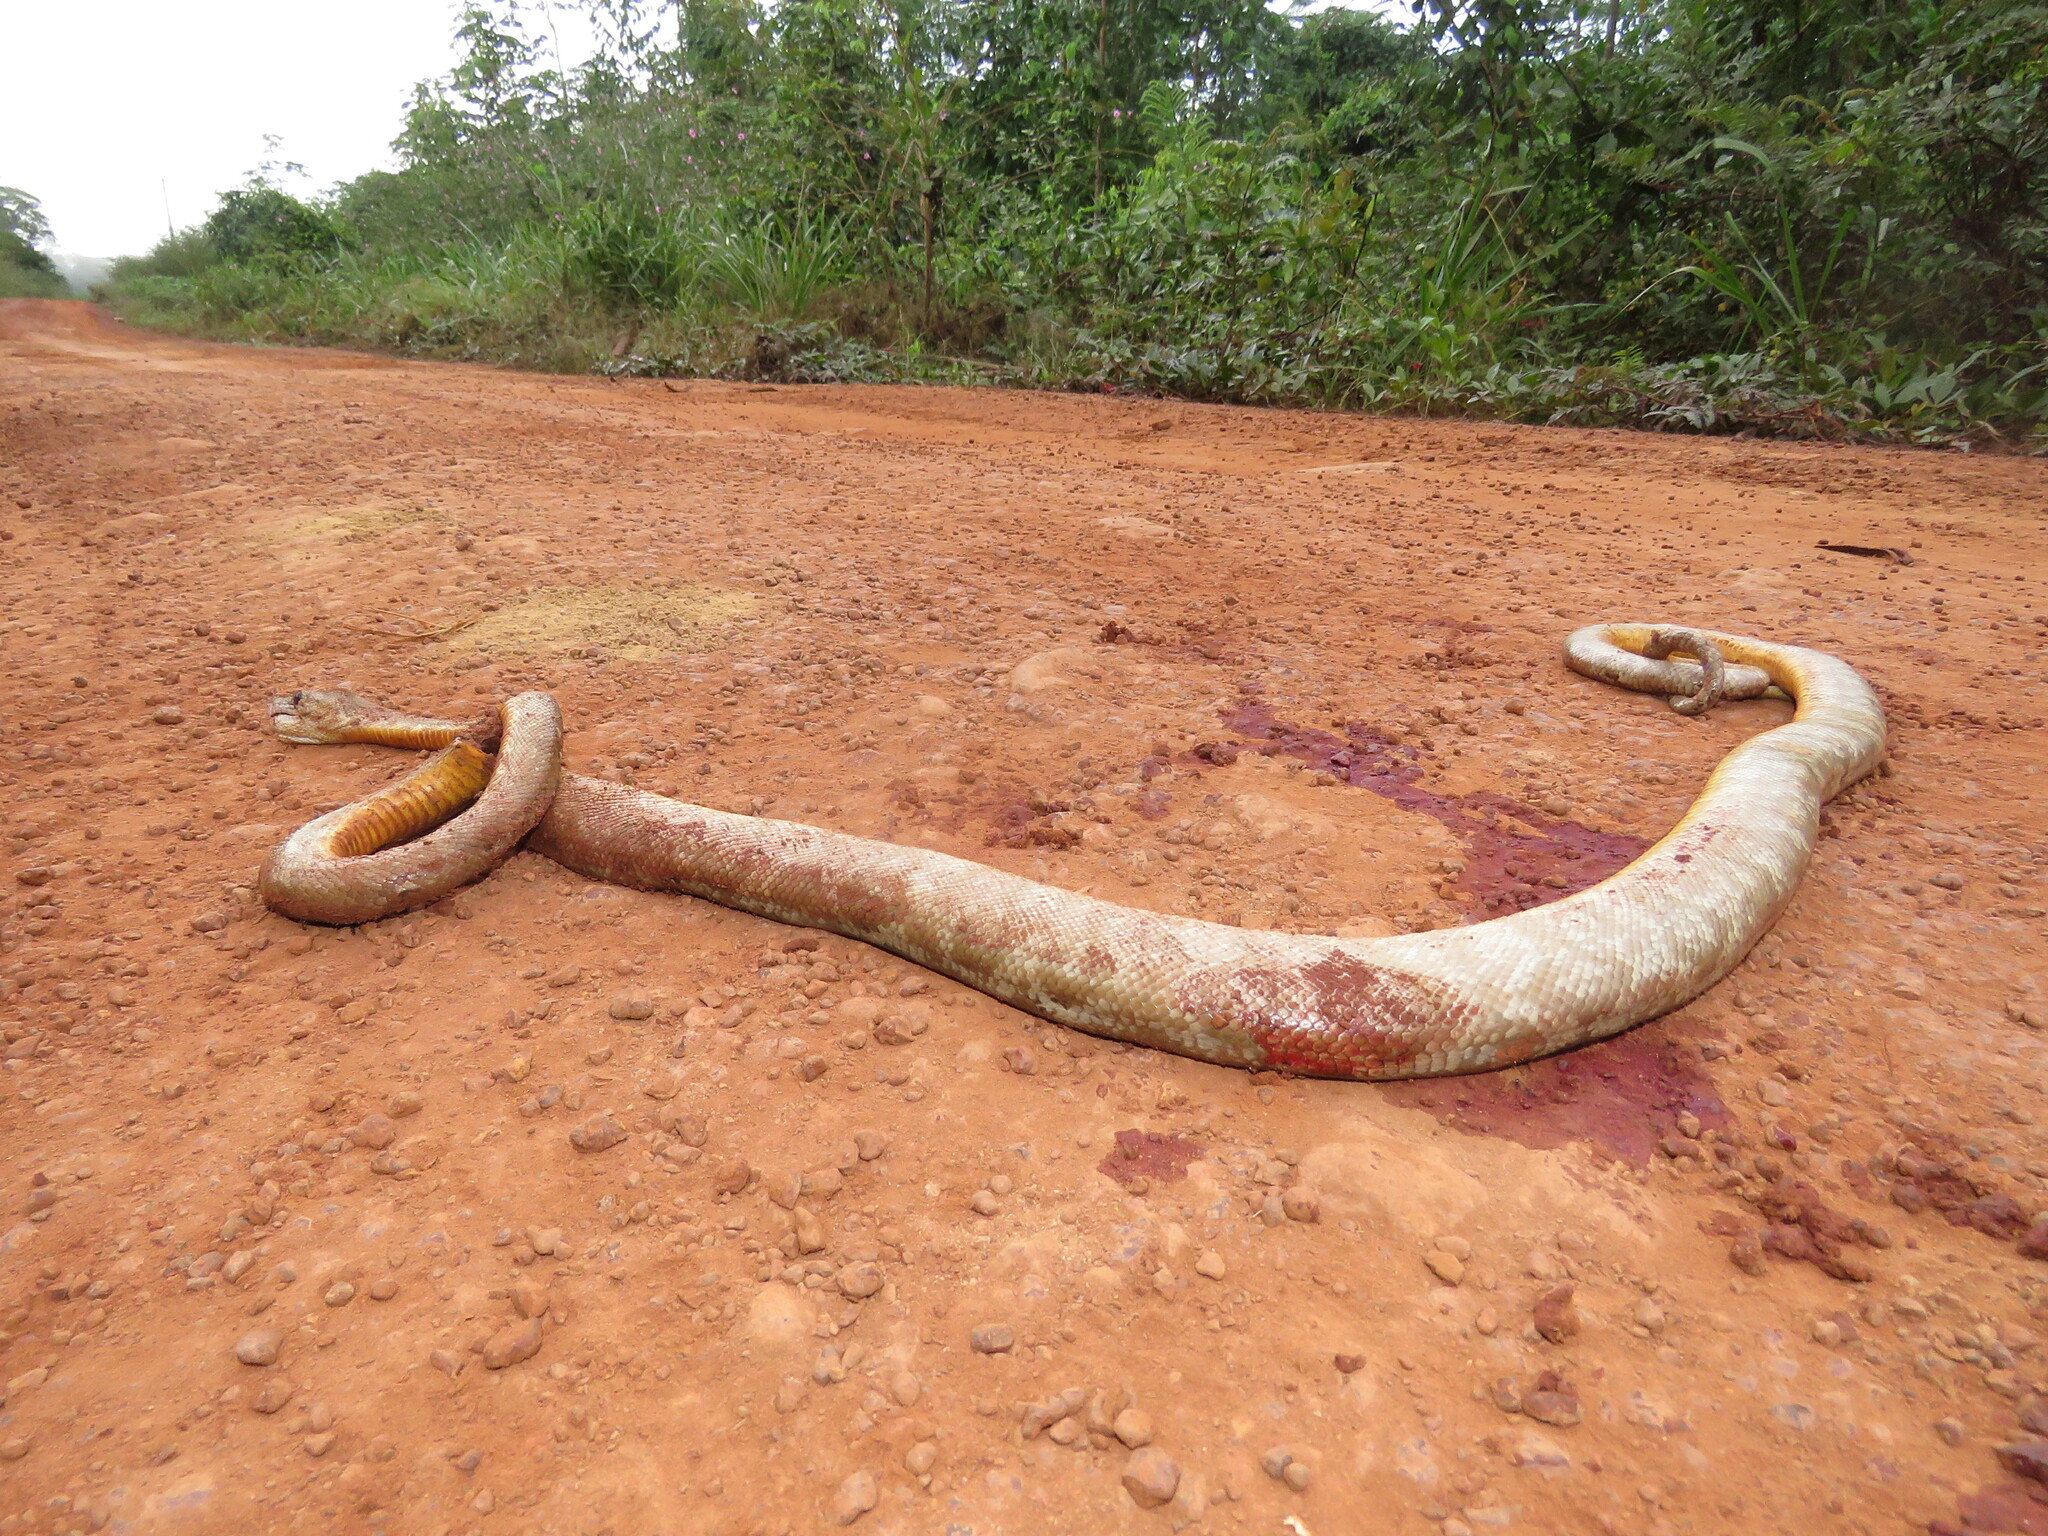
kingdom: Animalia
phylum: Chordata
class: Squamata
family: Boidae
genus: Corallus
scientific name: Corallus hortulana
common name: Garden tree boa
